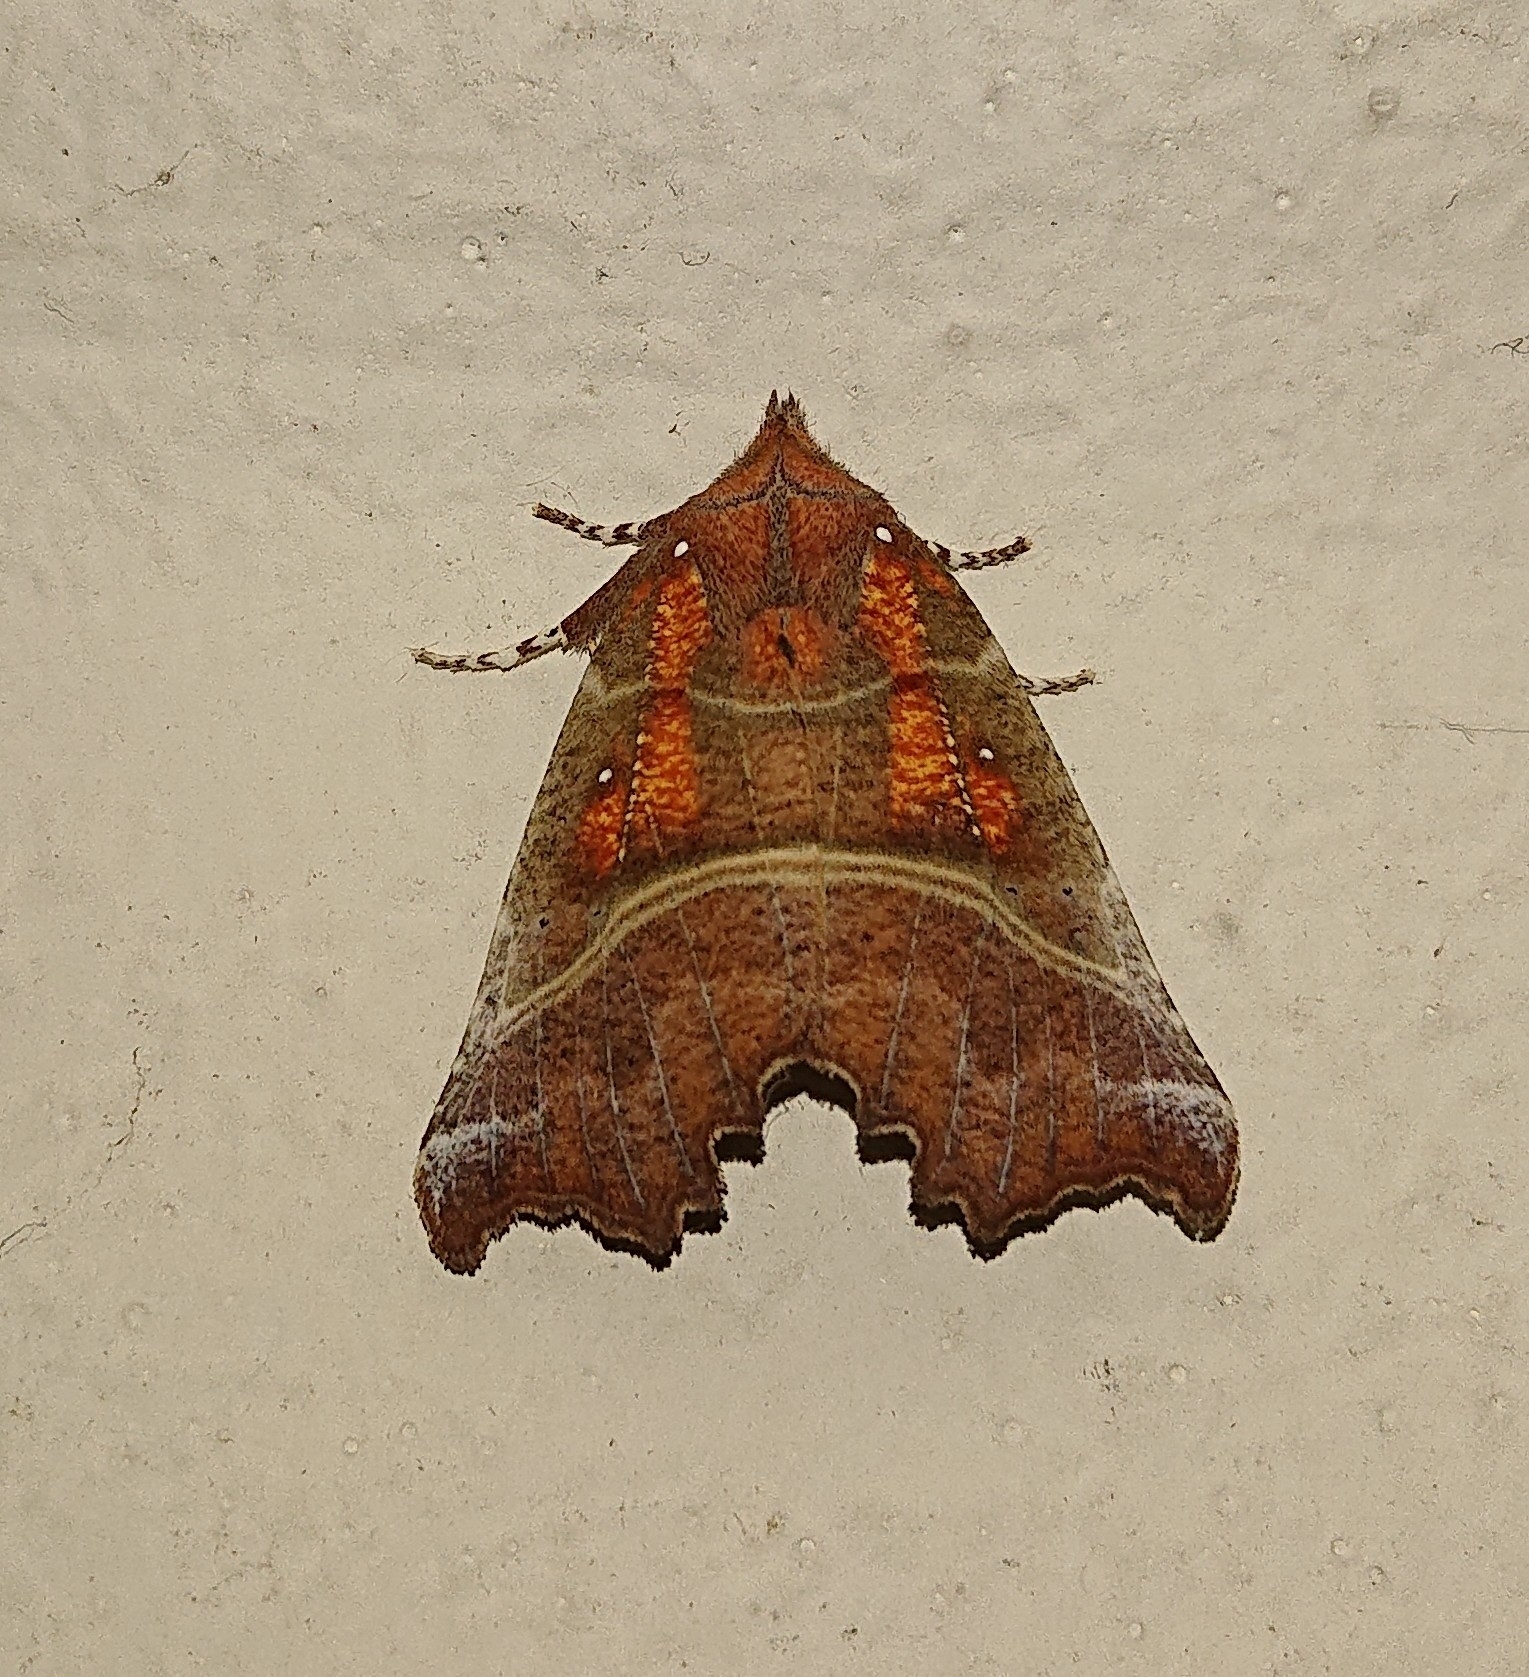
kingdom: Animalia
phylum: Arthropoda
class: Insecta
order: Lepidoptera
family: Erebidae
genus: Scoliopteryx
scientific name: Scoliopteryx libatrix
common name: Herald
